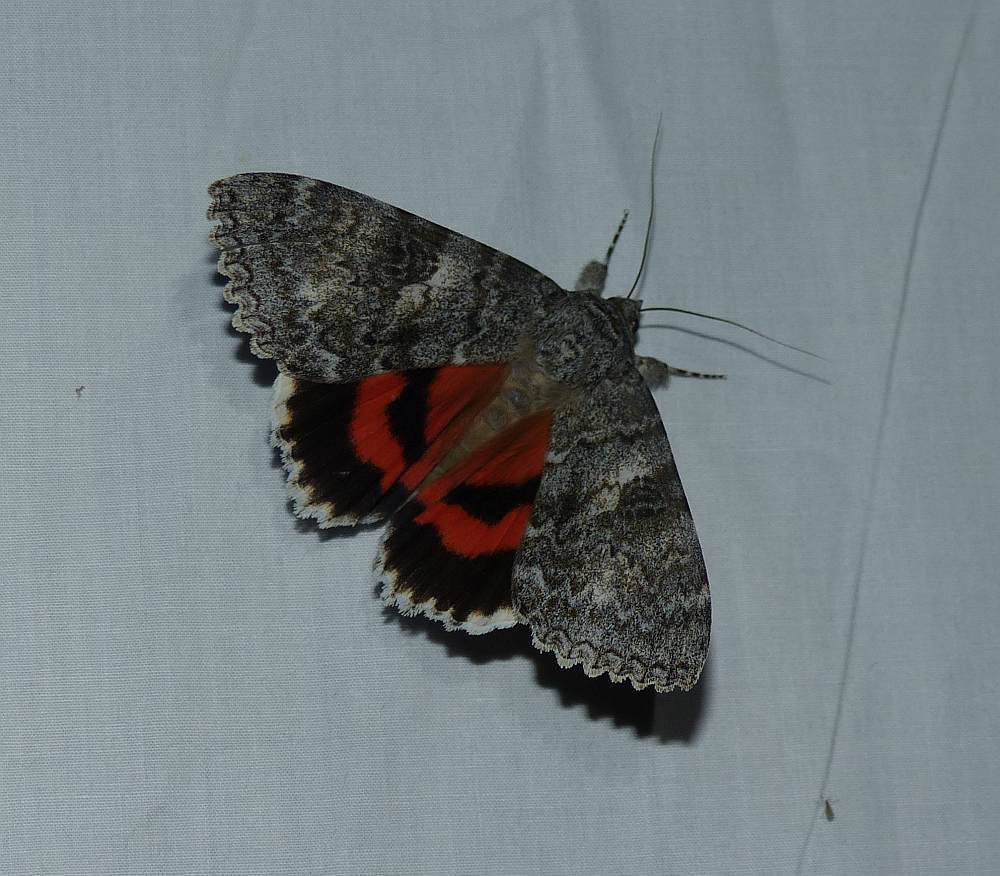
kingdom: Animalia
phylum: Arthropoda
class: Insecta
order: Lepidoptera
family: Erebidae
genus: Catocala
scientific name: Catocala unijuga
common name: Once-married underwing
